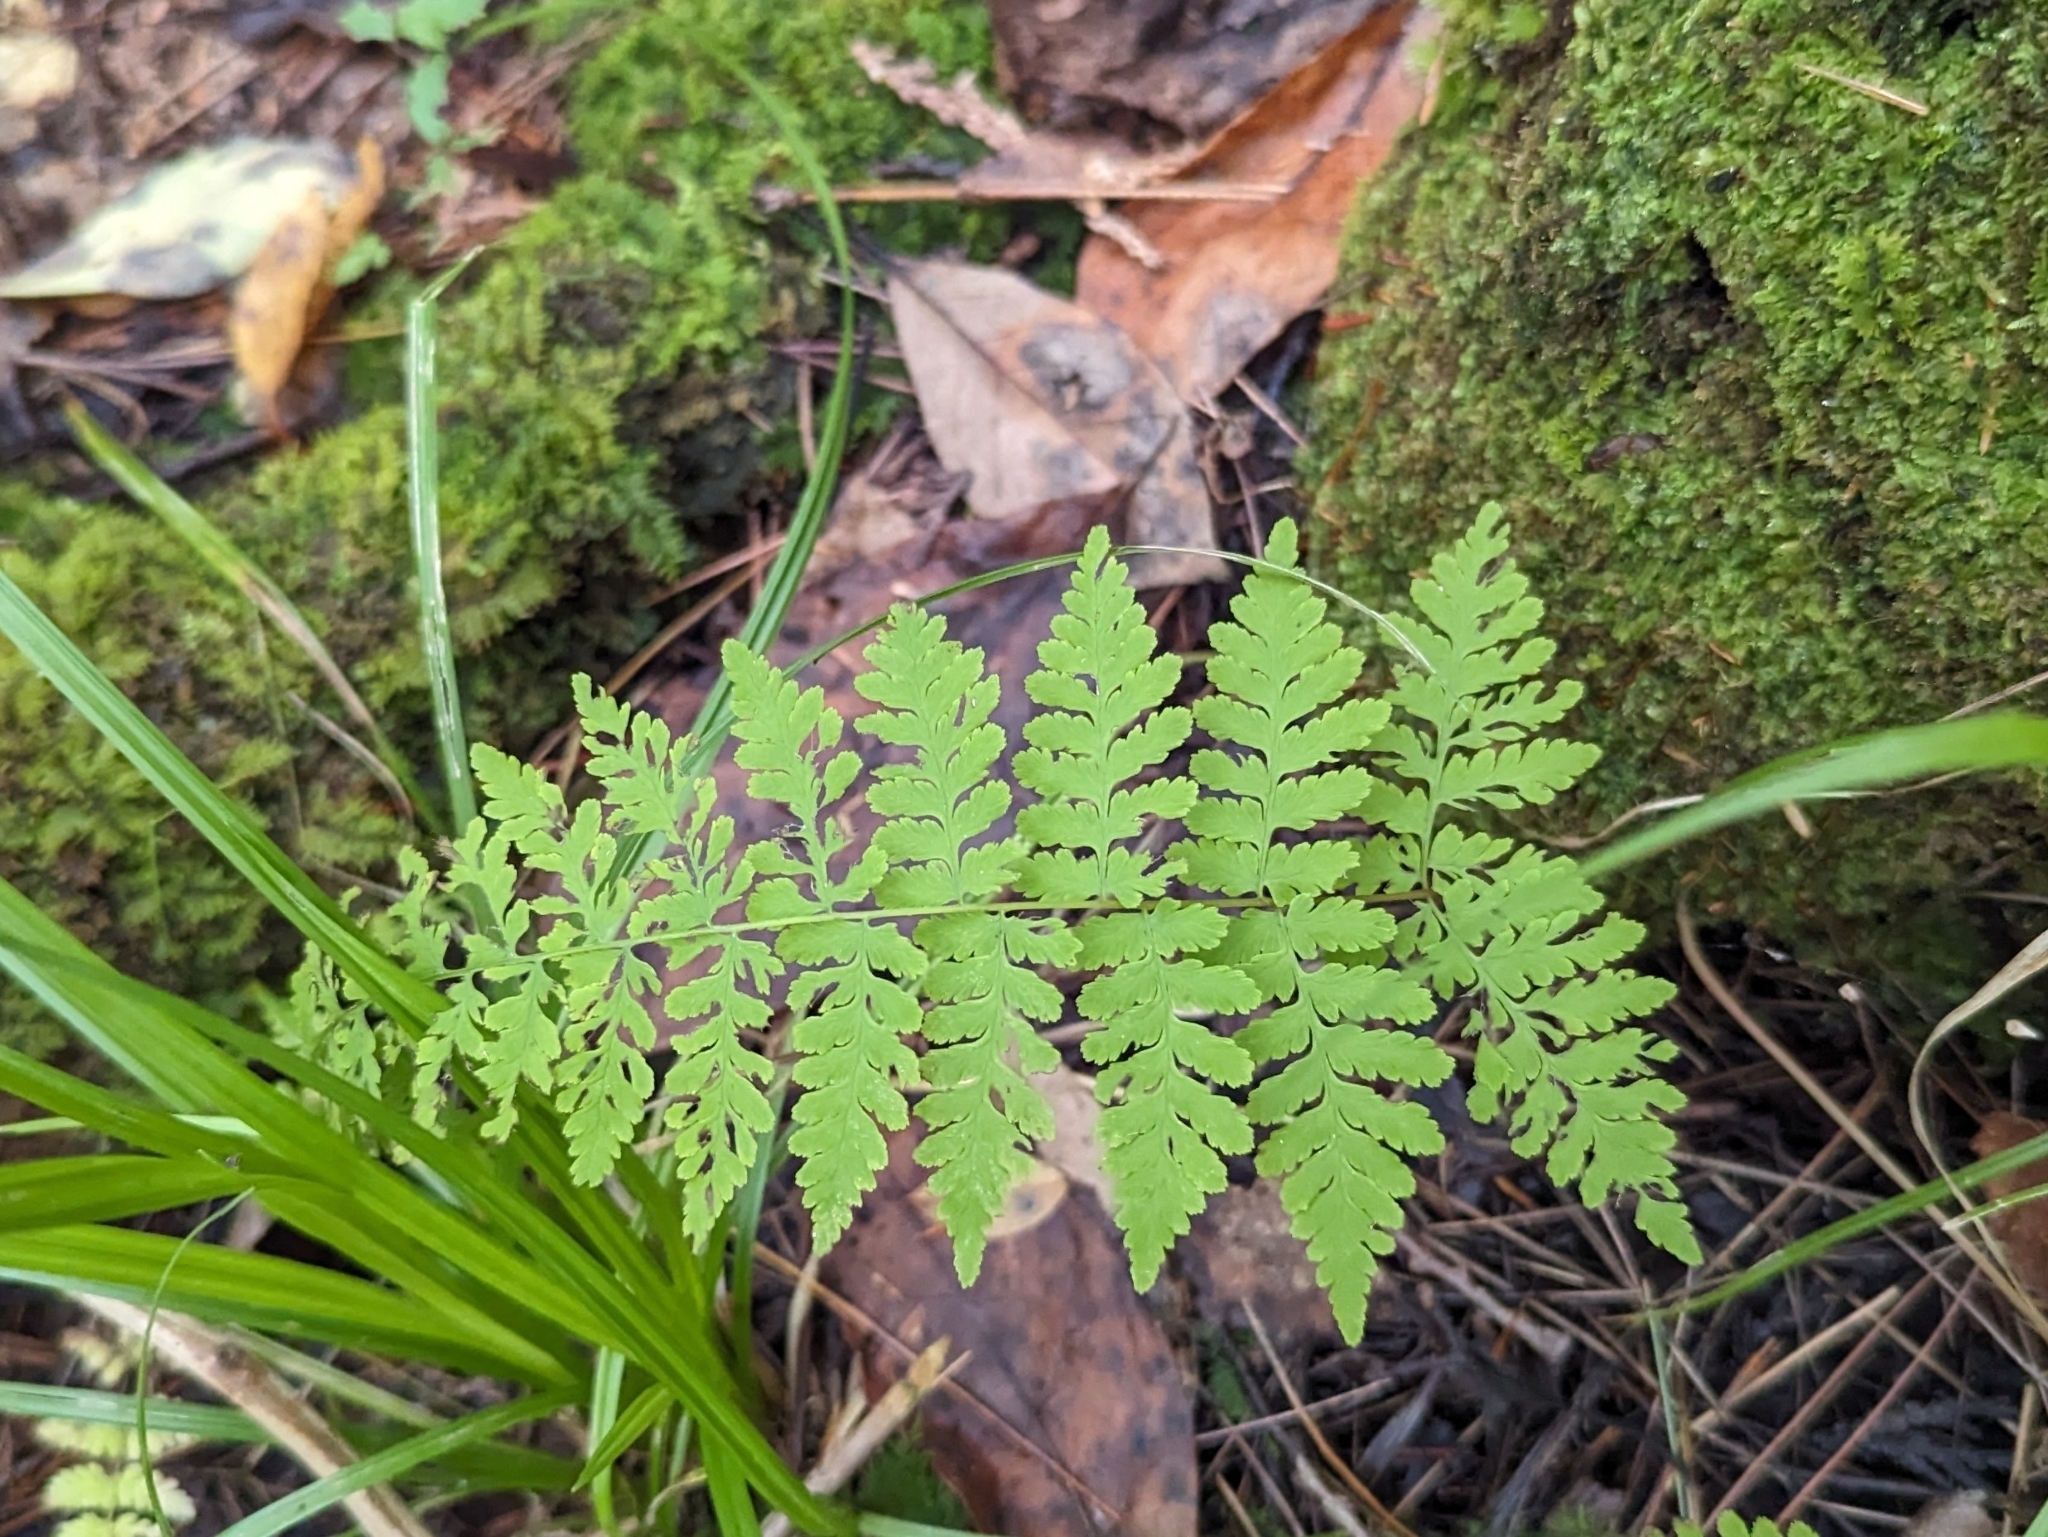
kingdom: Plantae
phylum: Tracheophyta
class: Polypodiopsida
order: Polypodiales
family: Cystopteridaceae
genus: Cystopteris
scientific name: Cystopteris bulbifera
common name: Bulblet bladder fern
